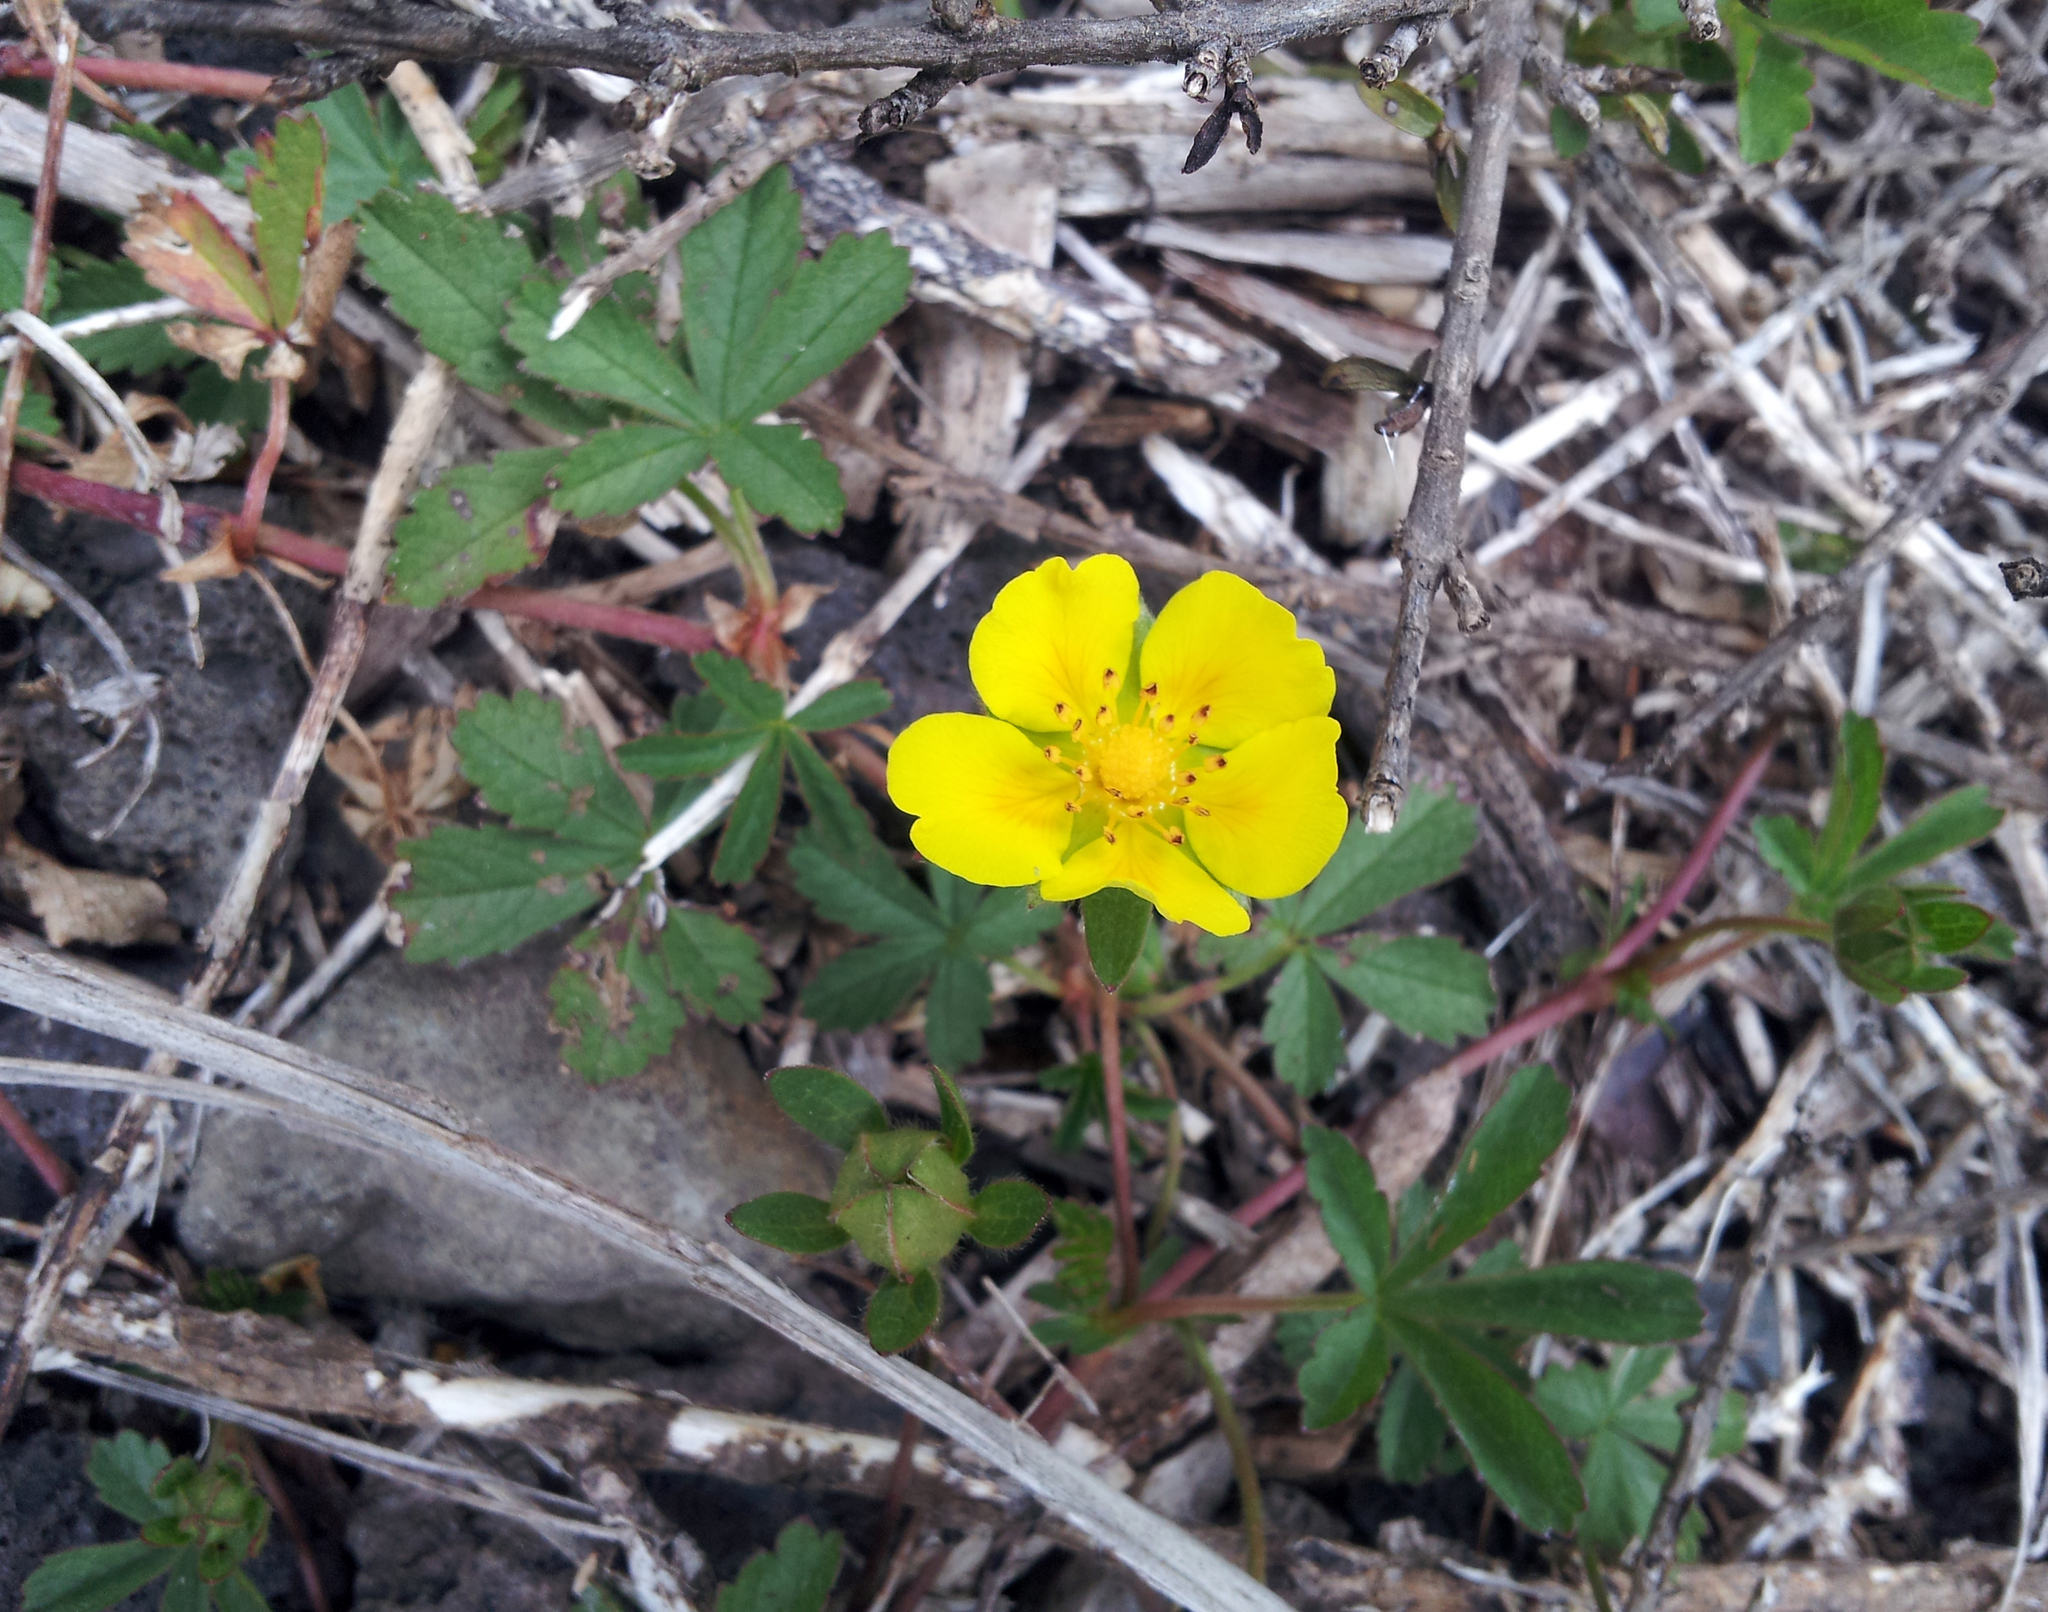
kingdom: Plantae
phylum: Tracheophyta
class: Magnoliopsida
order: Rosales
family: Rosaceae
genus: Potentilla
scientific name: Potentilla reptans
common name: Creeping cinquefoil
